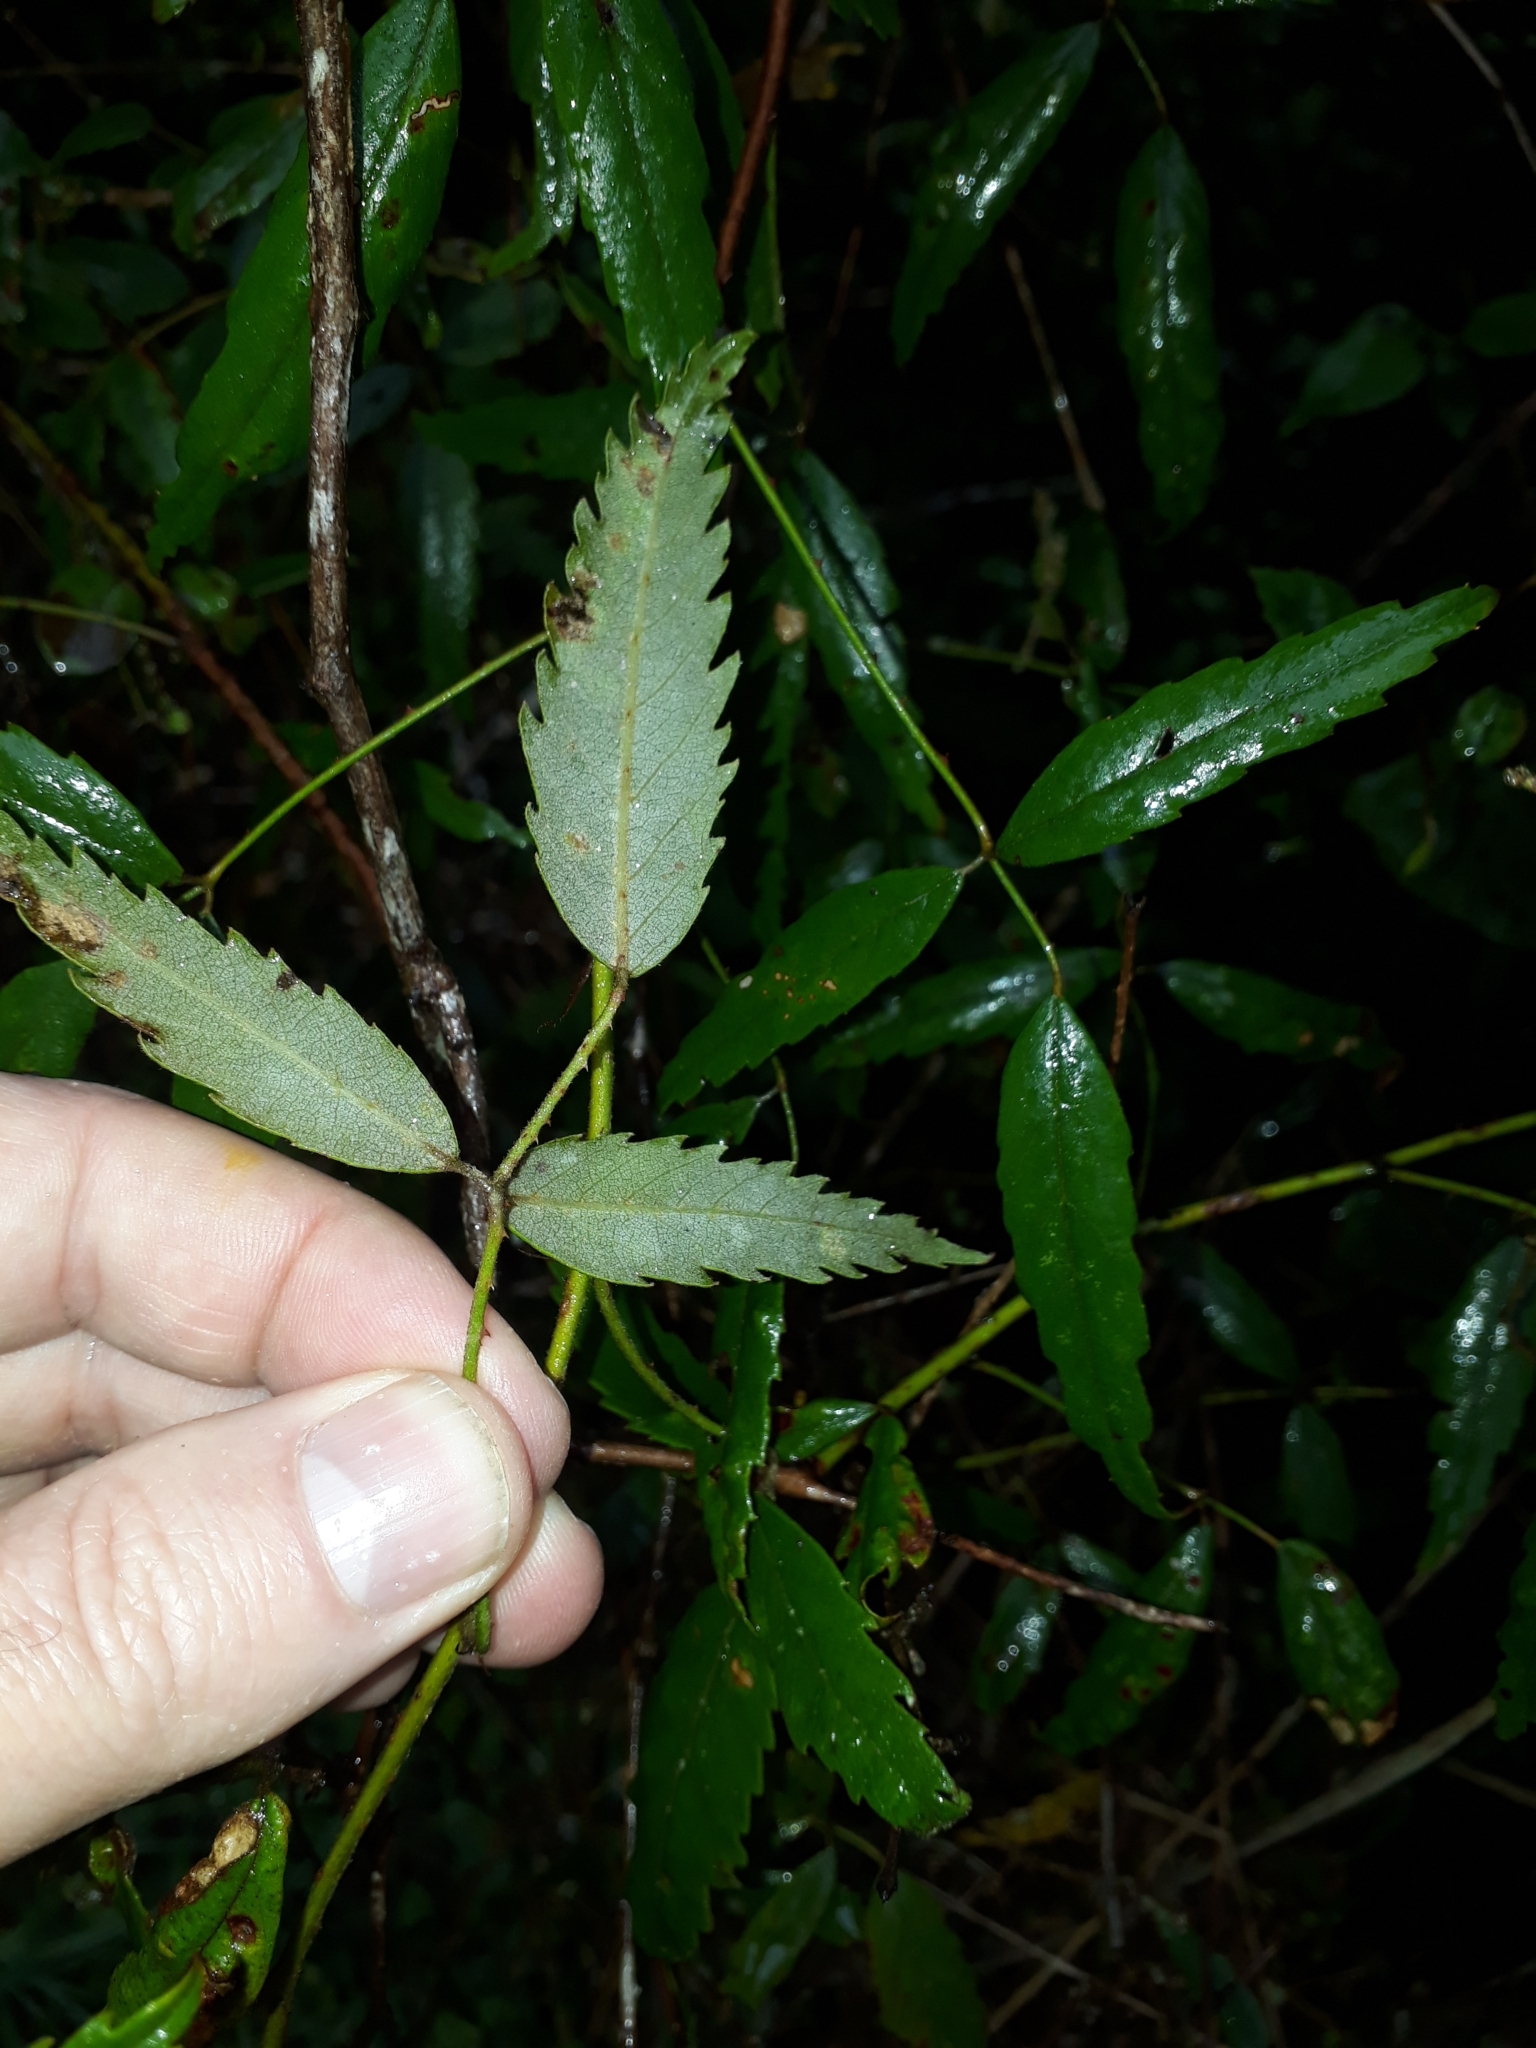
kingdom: Plantae
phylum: Tracheophyta
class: Magnoliopsida
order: Rosales
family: Rosaceae
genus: Rubus
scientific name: Rubus schmidelioides
